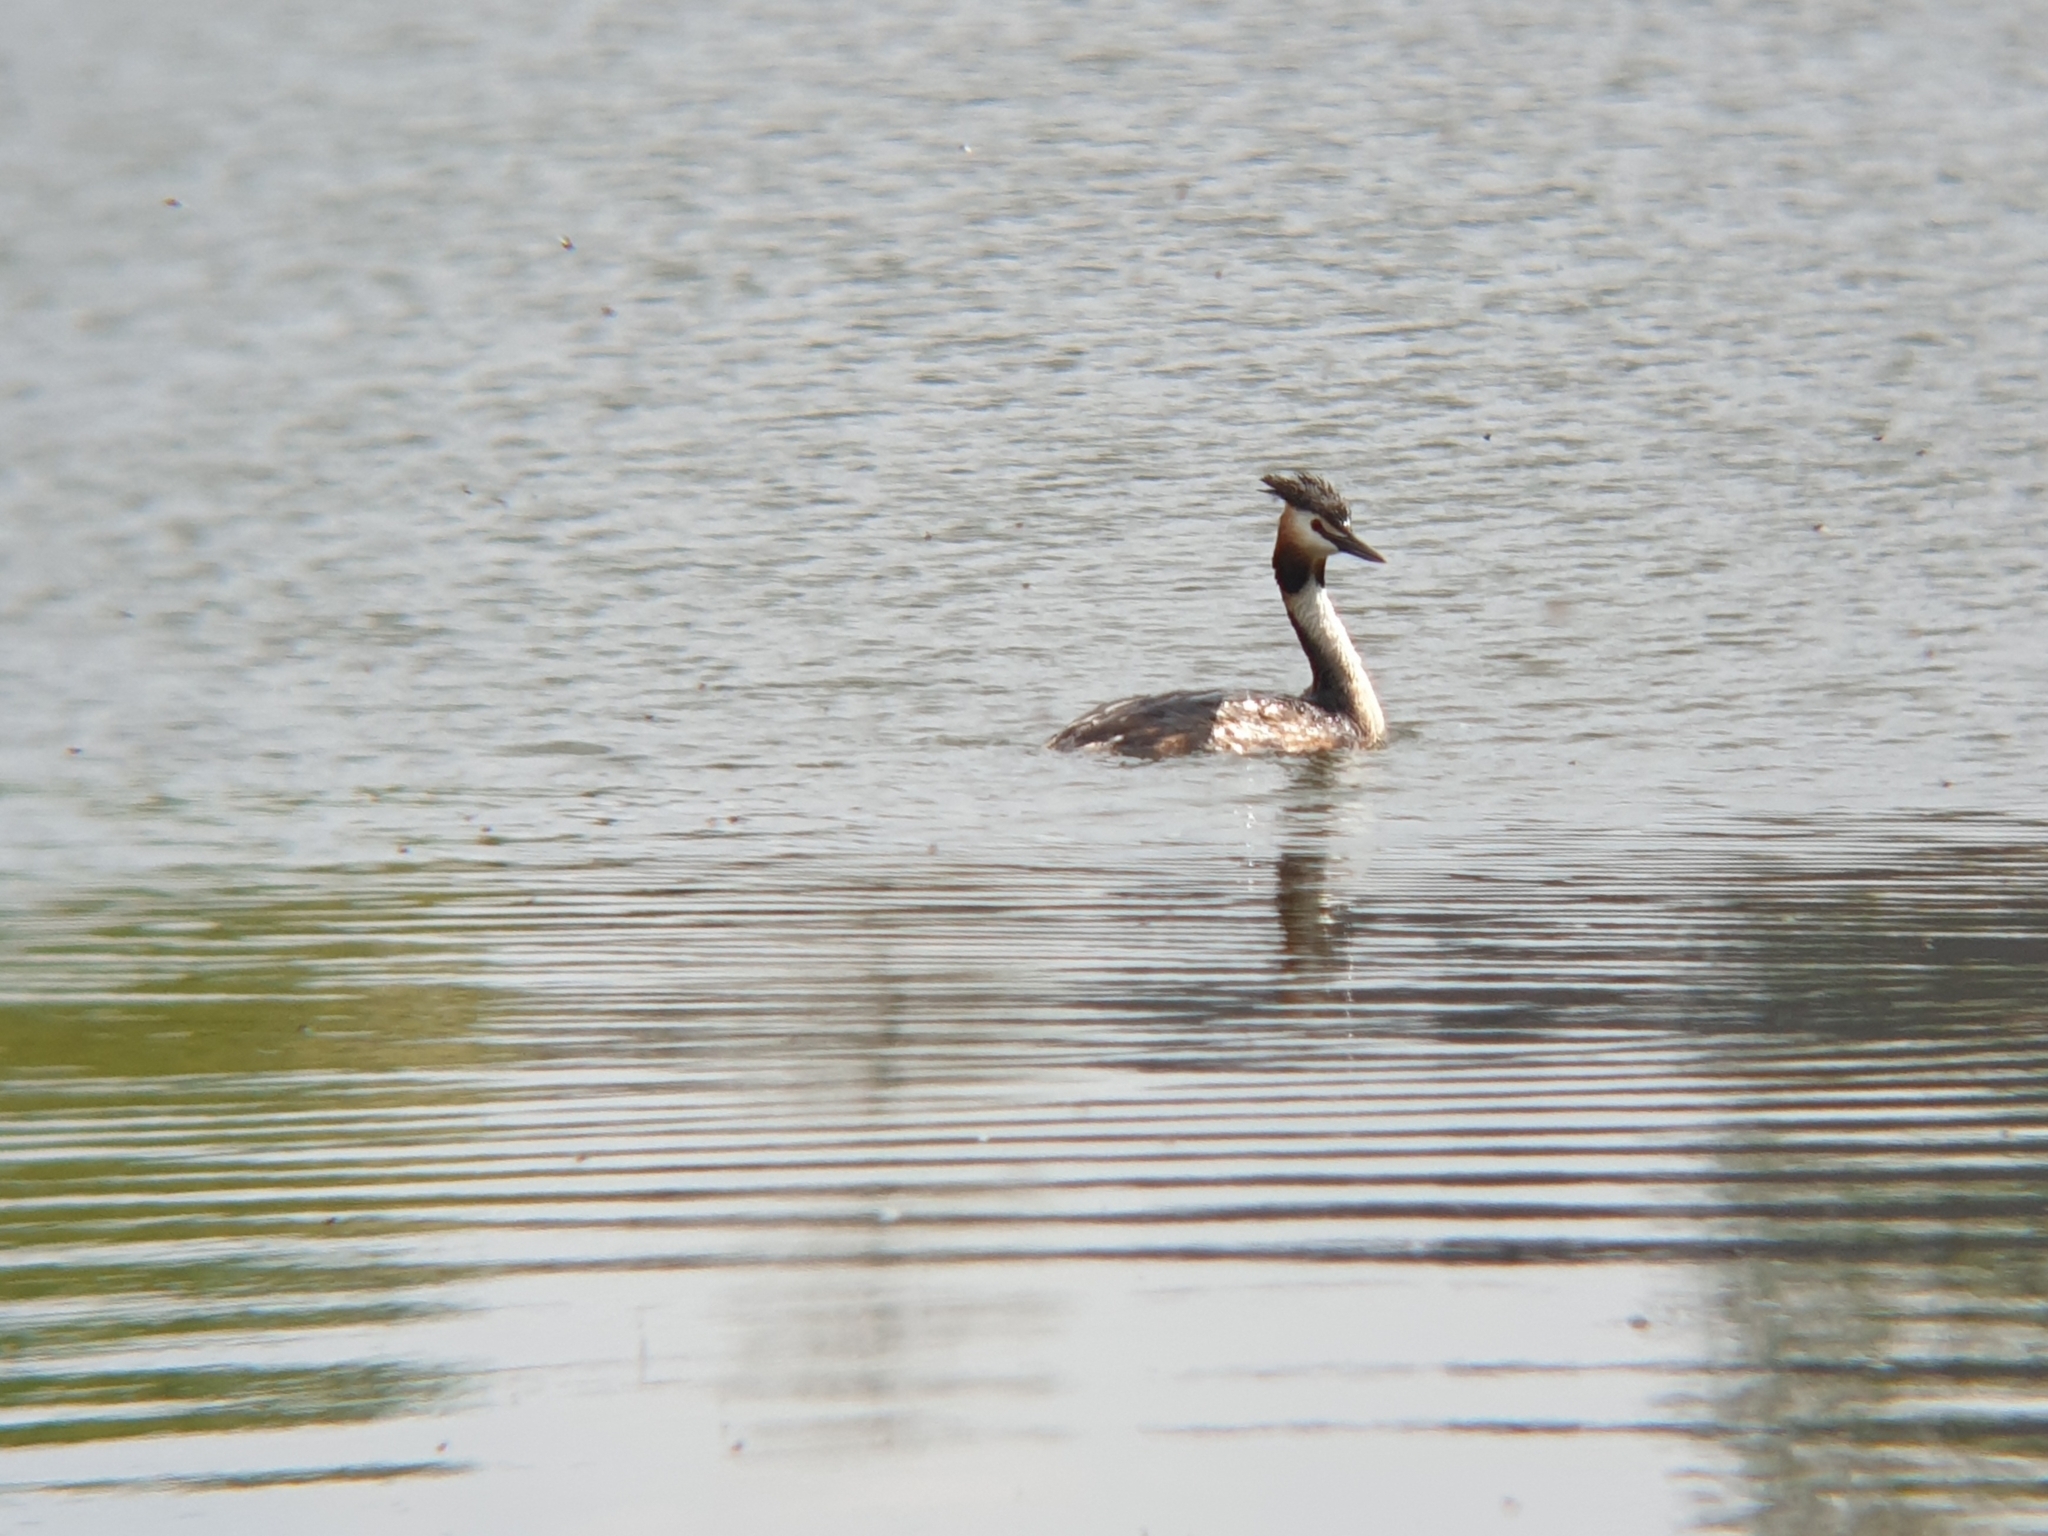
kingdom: Animalia
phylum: Chordata
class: Aves
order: Podicipediformes
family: Podicipedidae
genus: Podiceps
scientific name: Podiceps cristatus
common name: Great crested grebe
